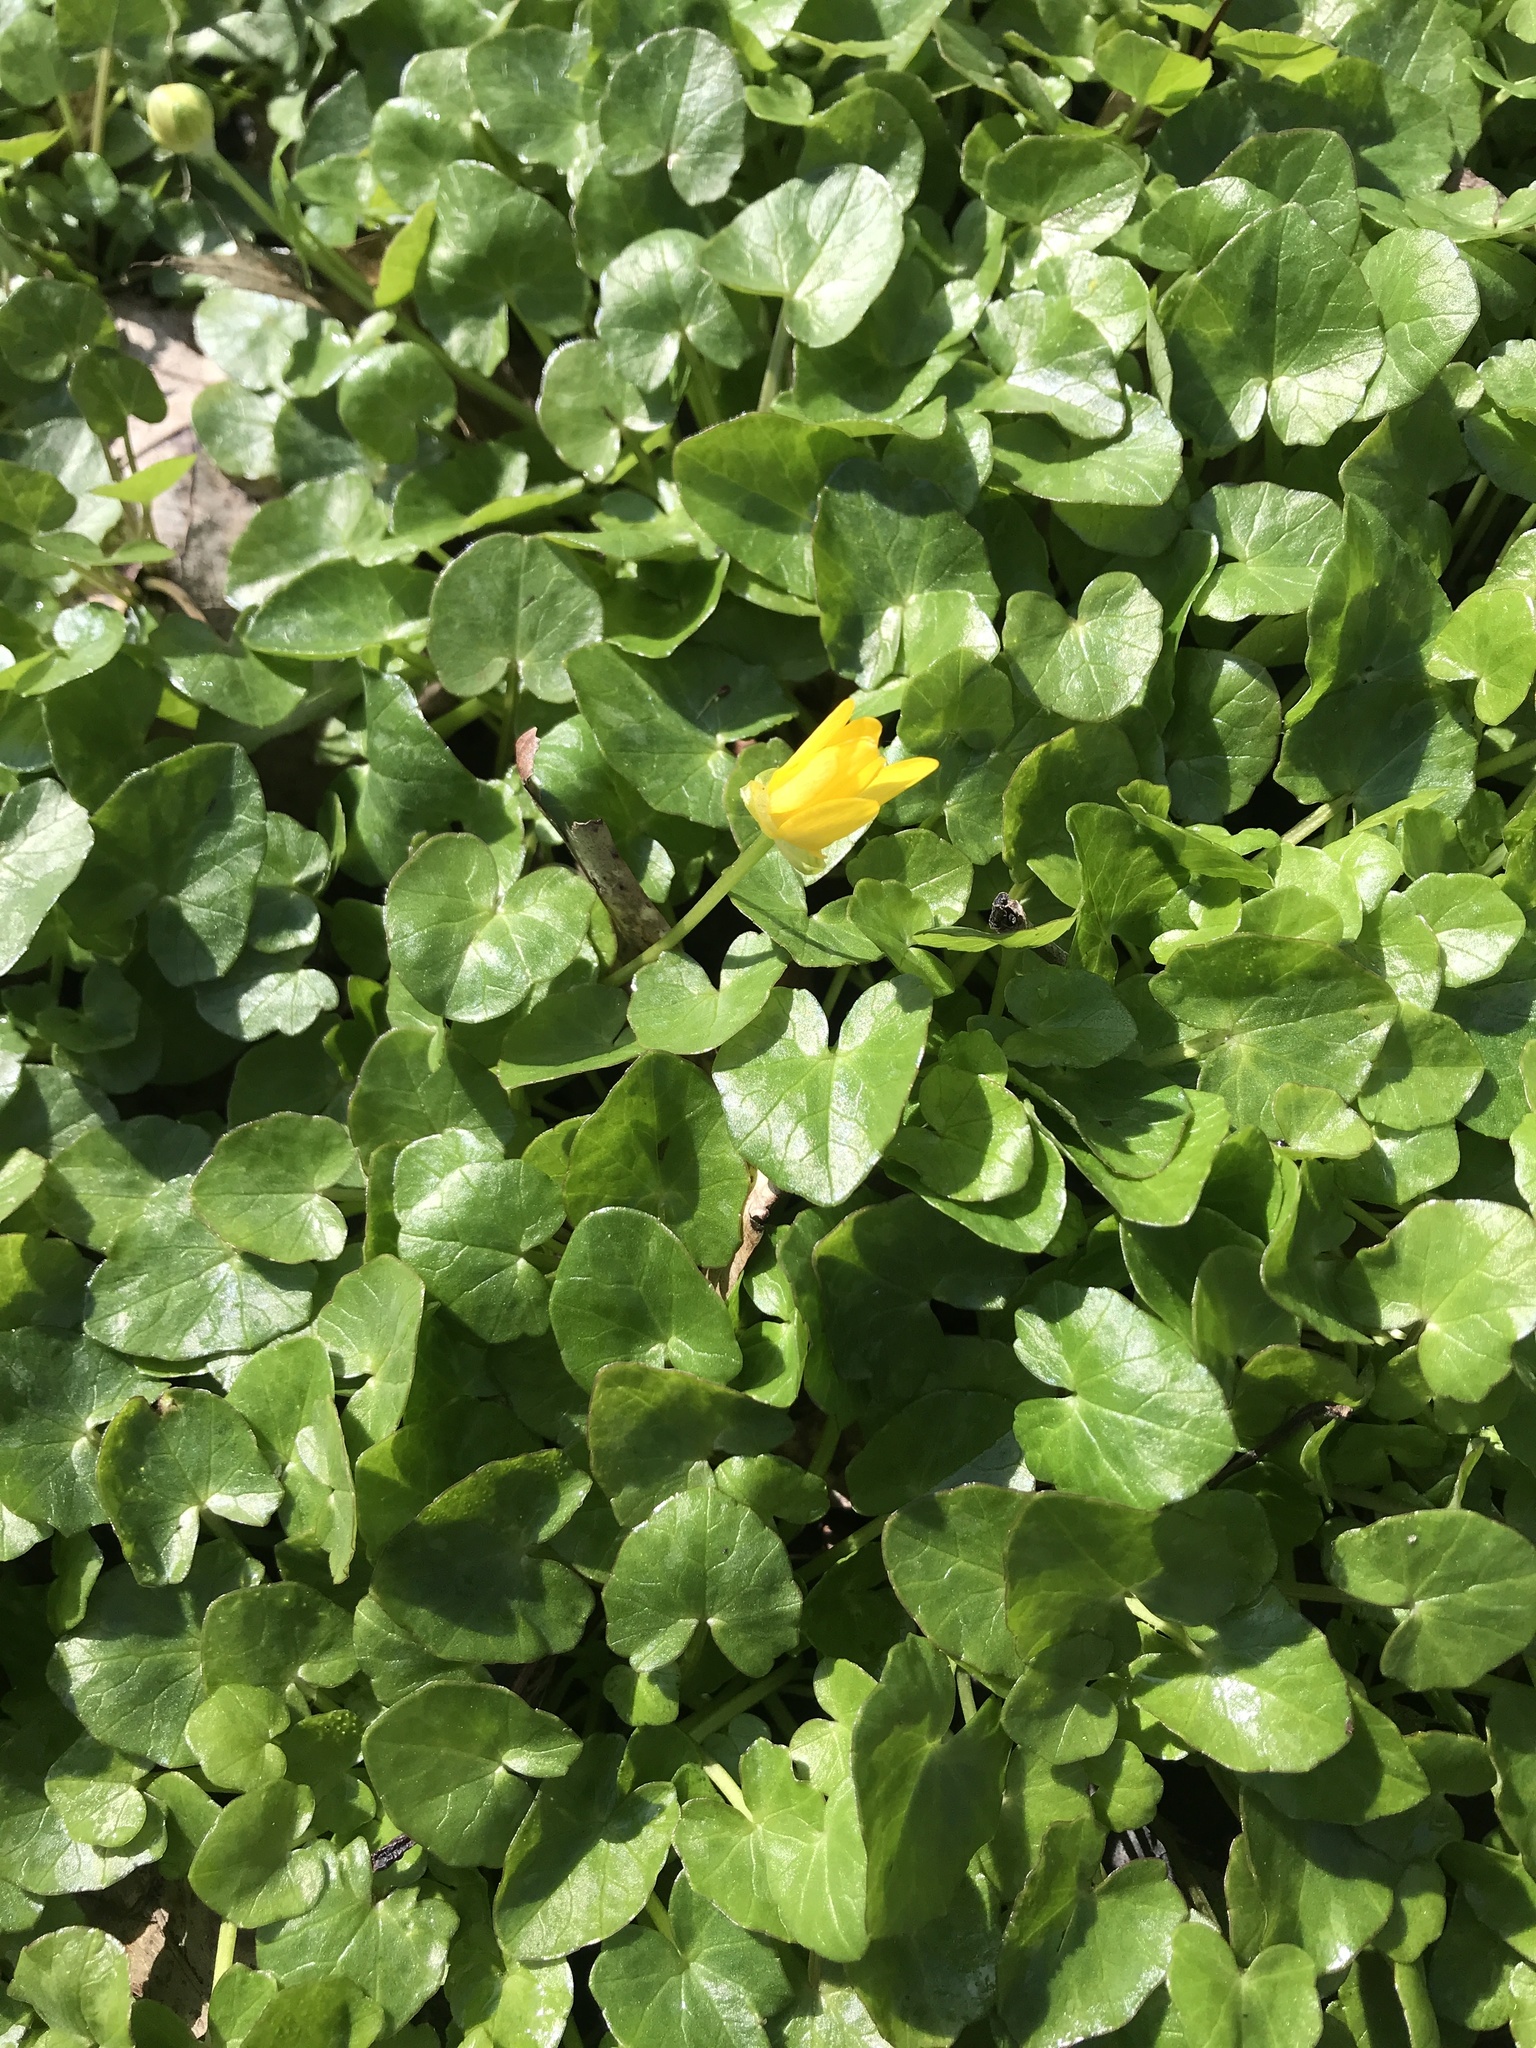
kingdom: Plantae
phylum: Tracheophyta
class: Magnoliopsida
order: Ranunculales
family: Ranunculaceae
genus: Ficaria
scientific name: Ficaria verna
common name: Lesser celandine
